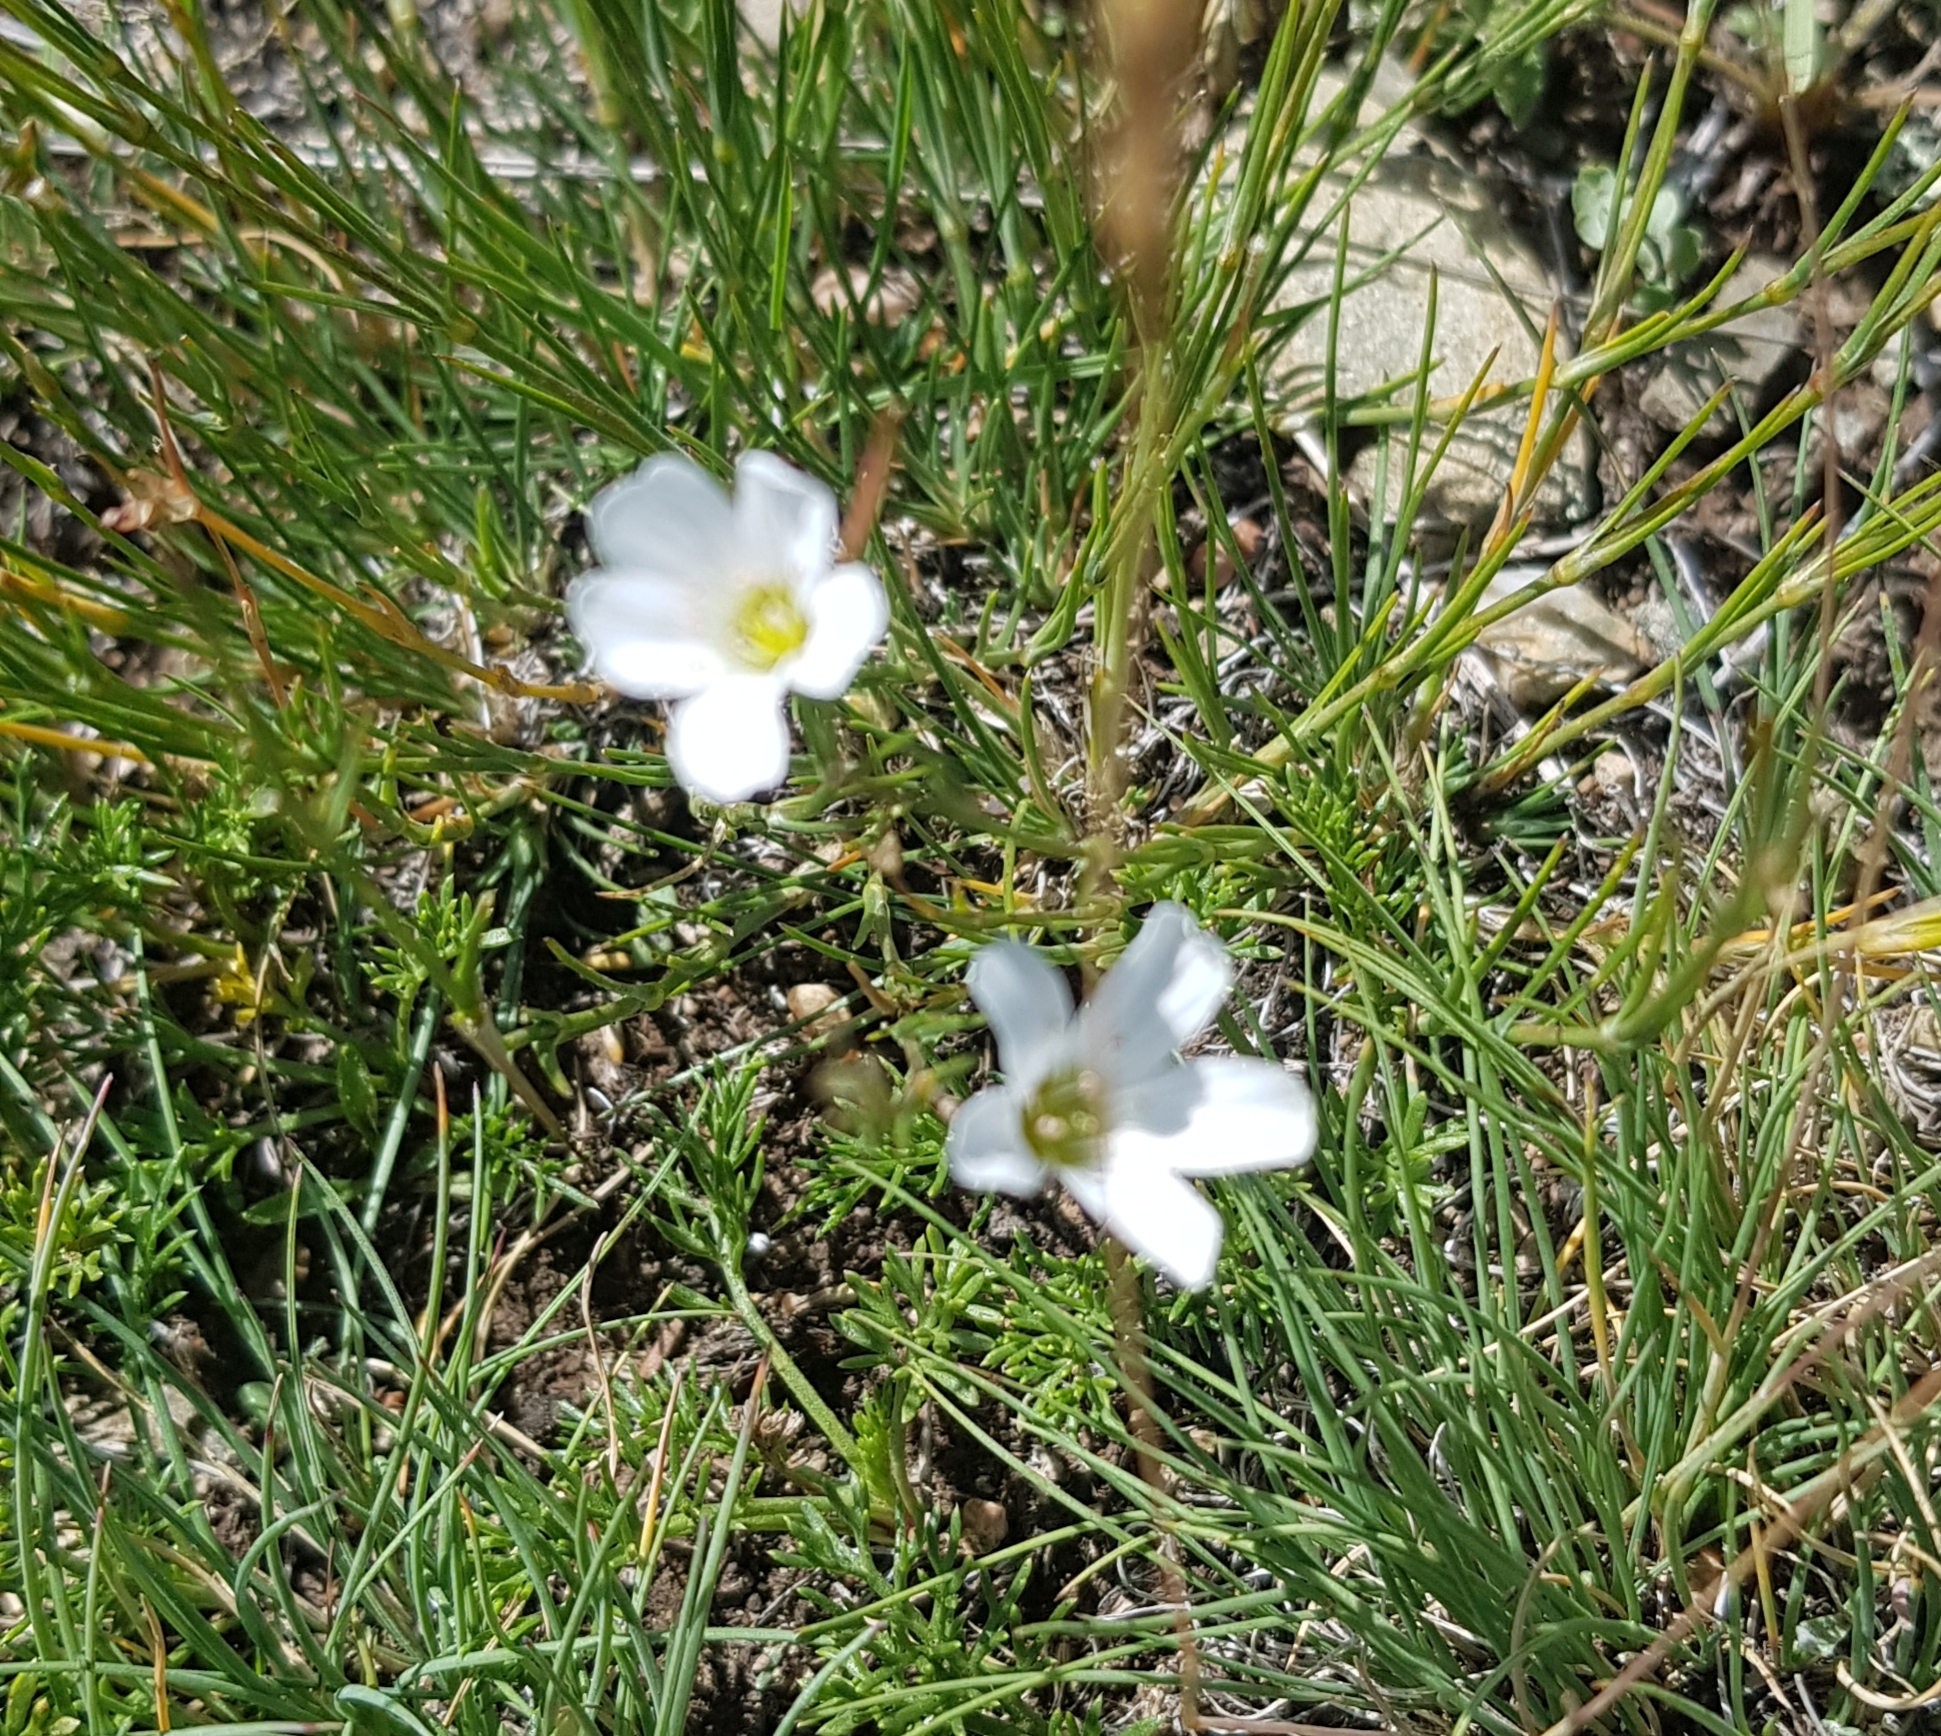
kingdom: Plantae
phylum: Tracheophyta
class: Magnoliopsida
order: Caryophyllales
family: Caryophyllaceae
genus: Eremogone
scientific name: Eremogone meyeri
